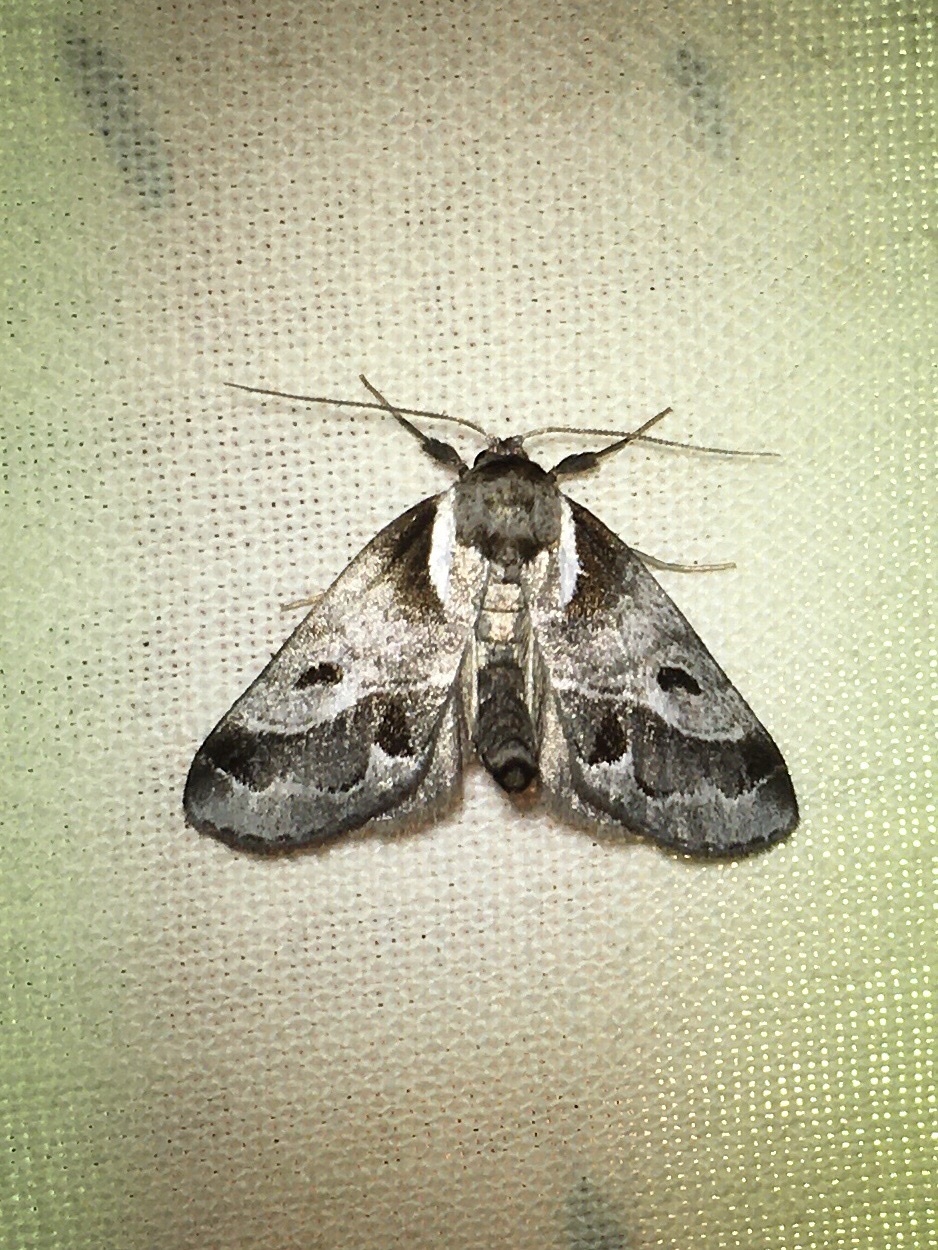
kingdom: Animalia
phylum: Arthropoda
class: Insecta
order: Lepidoptera
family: Nolidae
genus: Baileya
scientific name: Baileya doubledayi
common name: Doubleday's baileya moth
